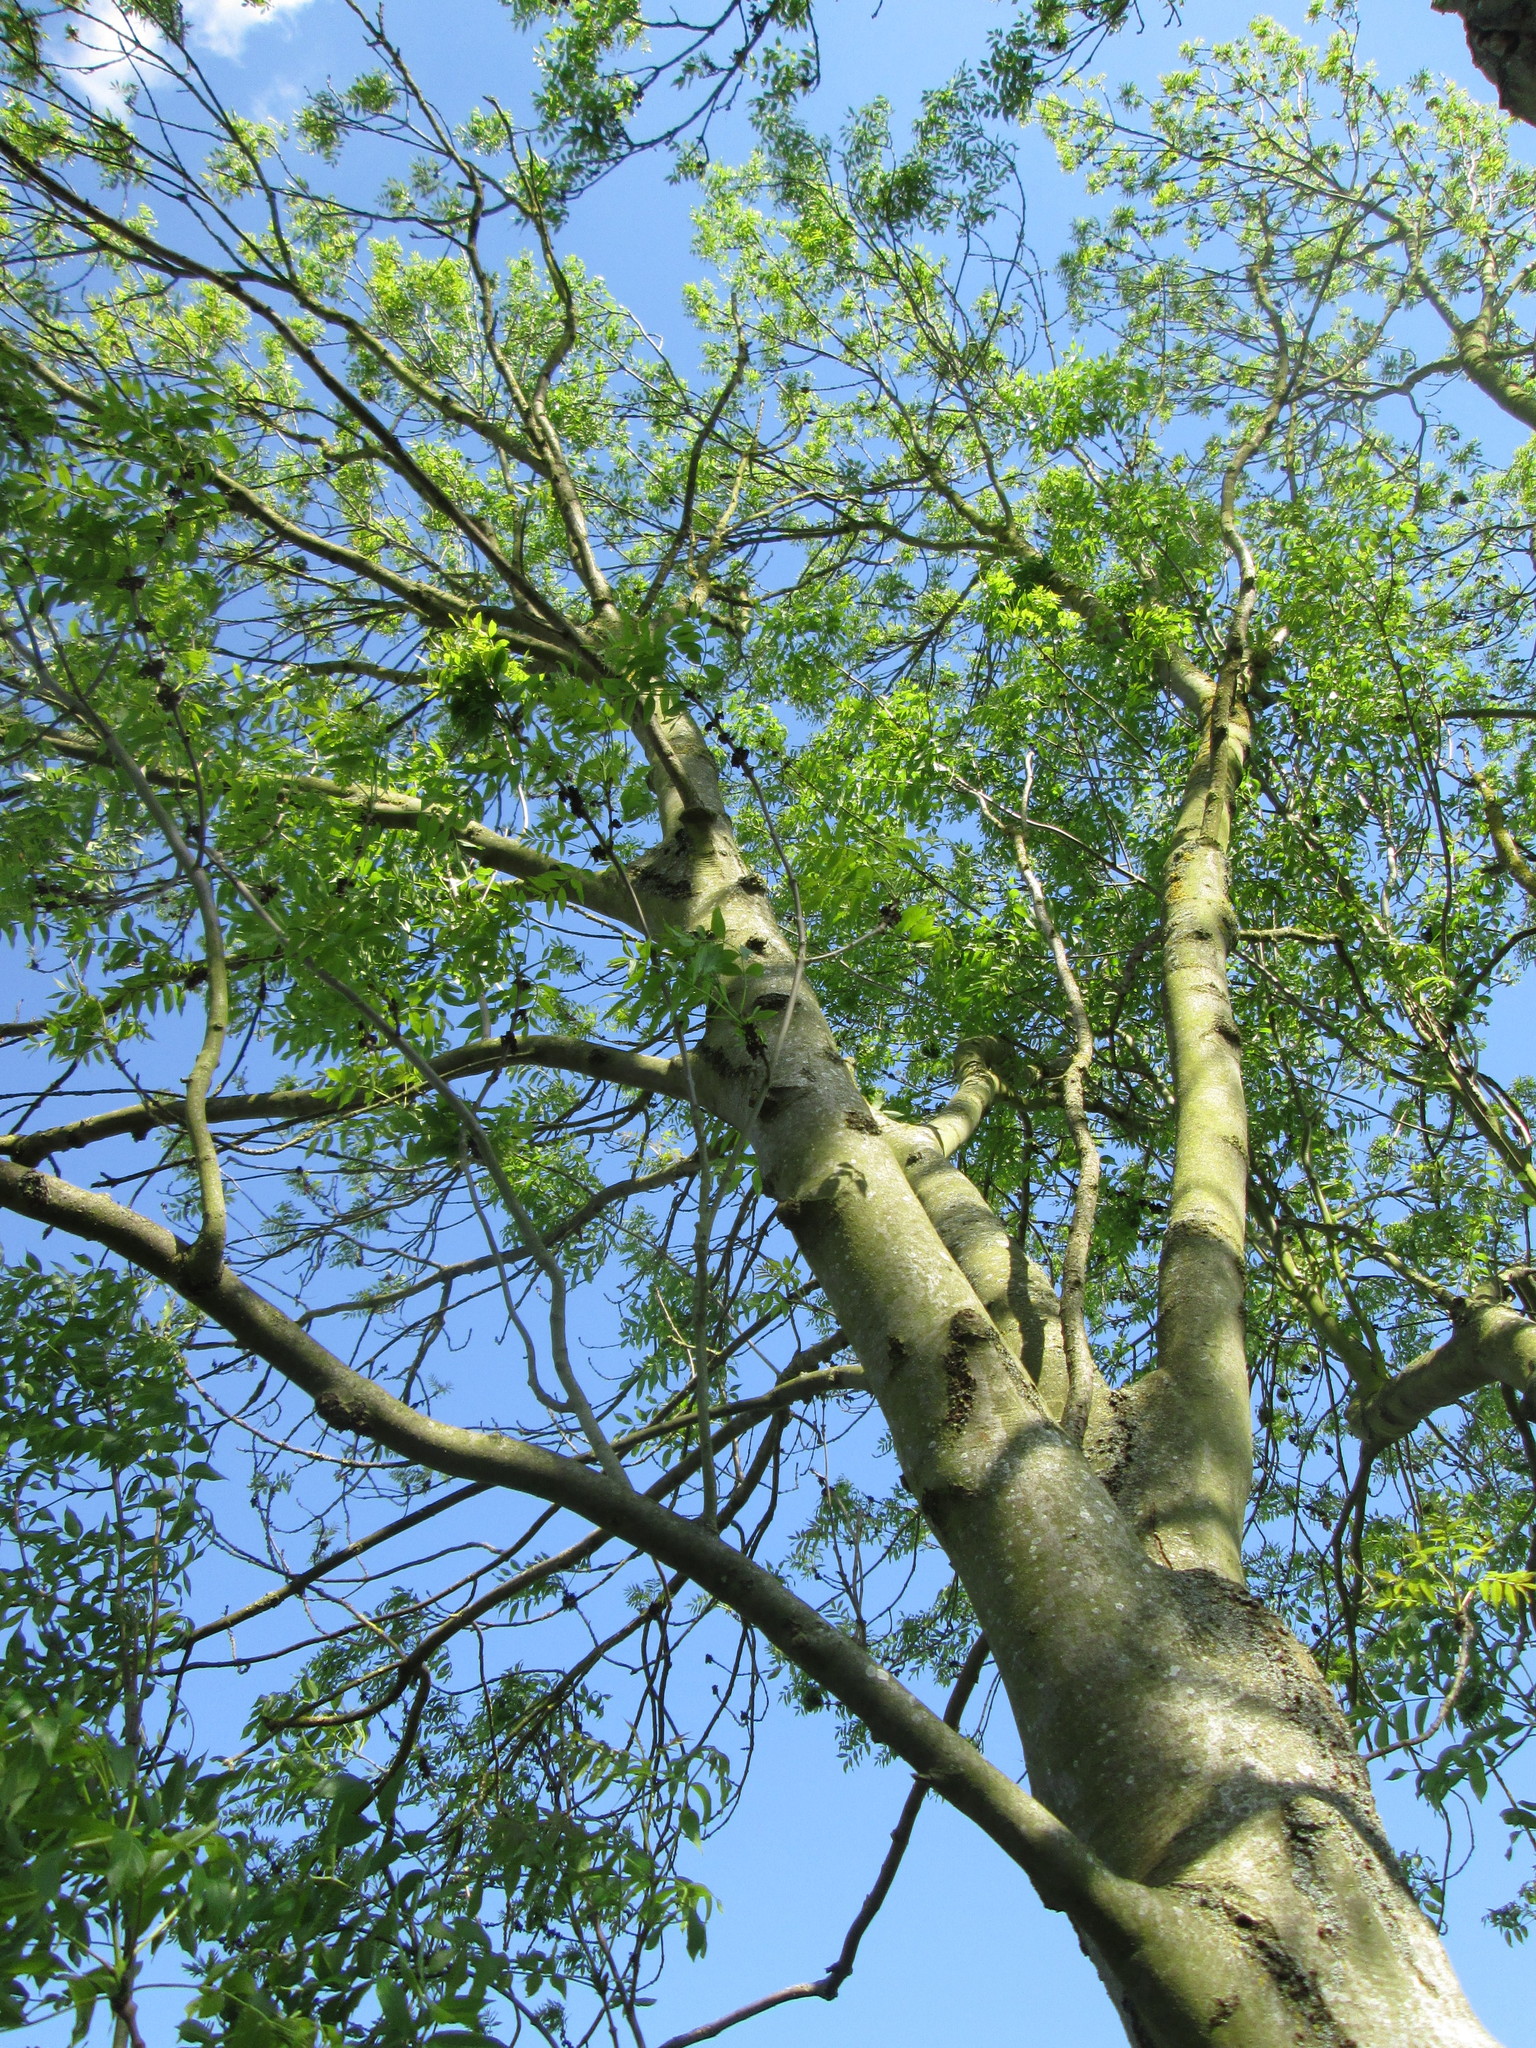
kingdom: Plantae
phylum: Tracheophyta
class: Magnoliopsida
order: Lamiales
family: Oleaceae
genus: Fraxinus
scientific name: Fraxinus excelsior
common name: European ash
